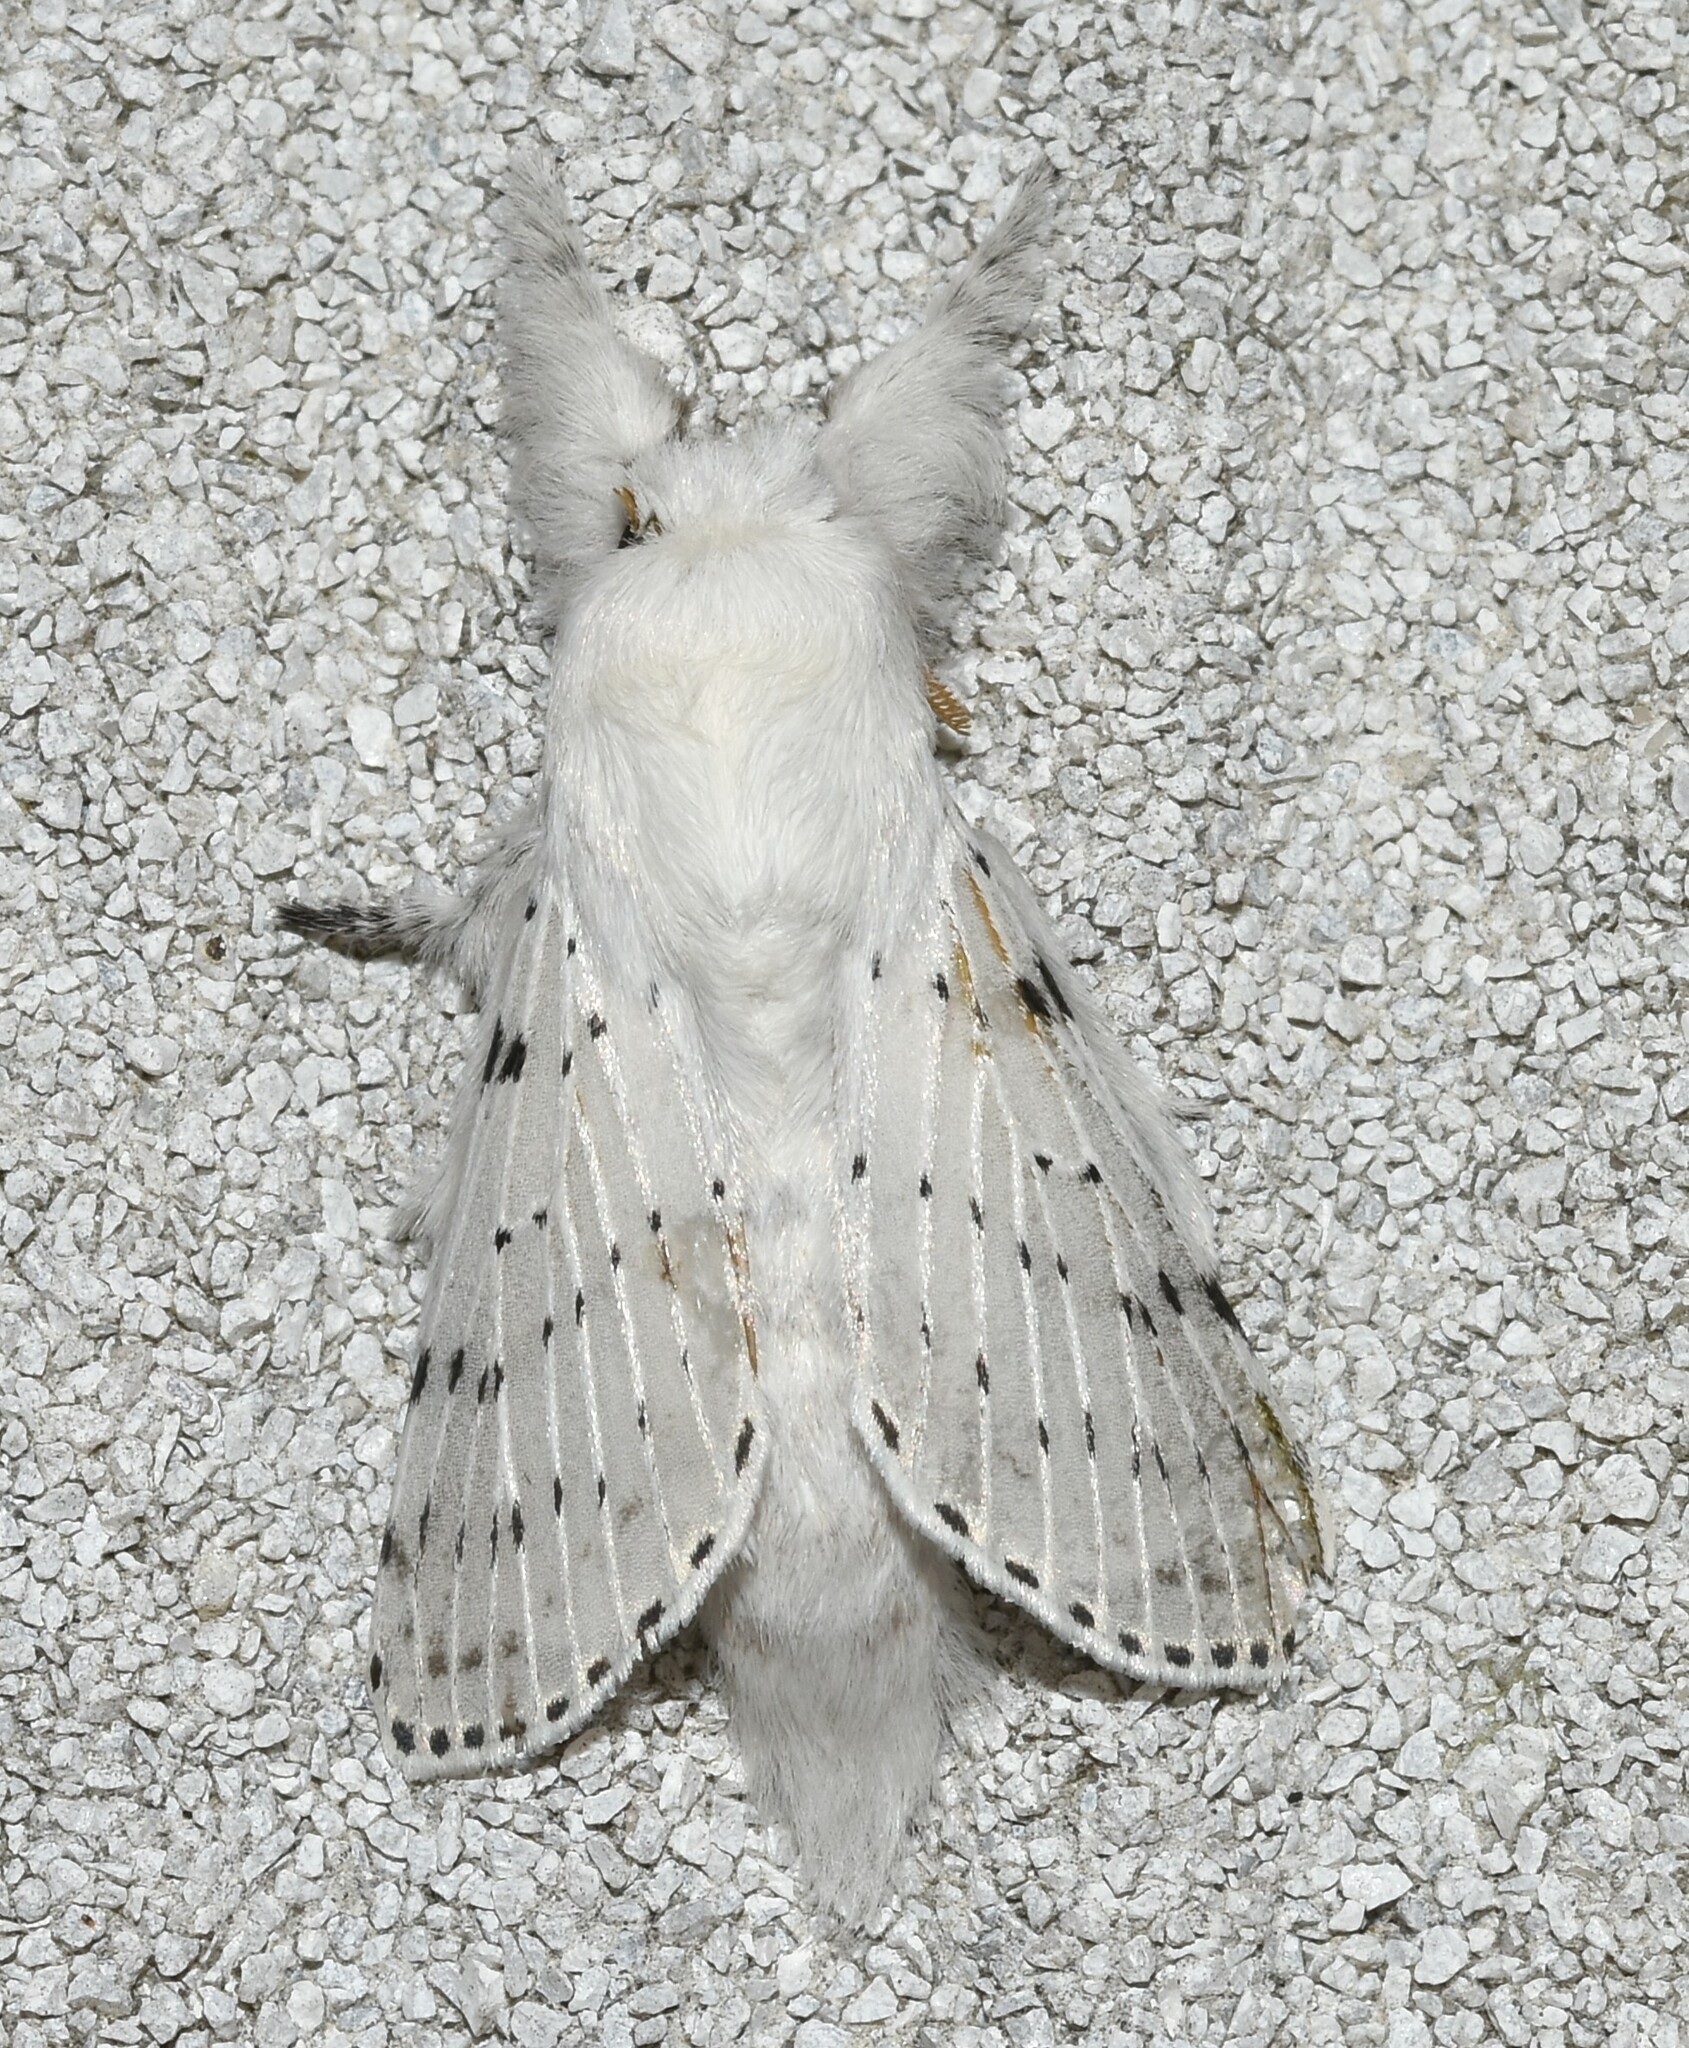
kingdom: Animalia
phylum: Arthropoda
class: Insecta
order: Lepidoptera
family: Lasiocampidae
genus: Artace
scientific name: Artace cribrarius
